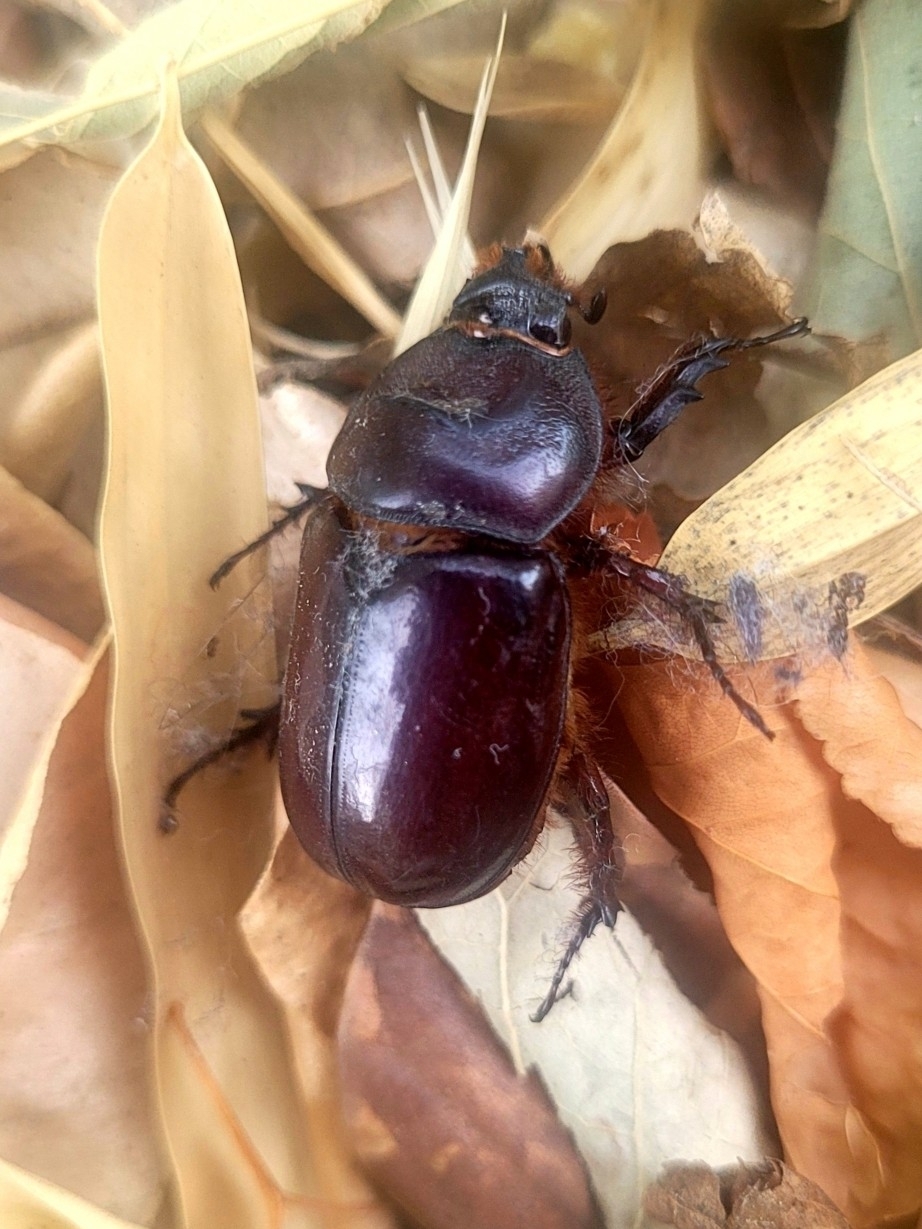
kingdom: Animalia
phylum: Arthropoda
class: Insecta
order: Coleoptera
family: Scarabaeidae
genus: Oryctes
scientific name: Oryctes nasicornis
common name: European rhinoceros beetle
